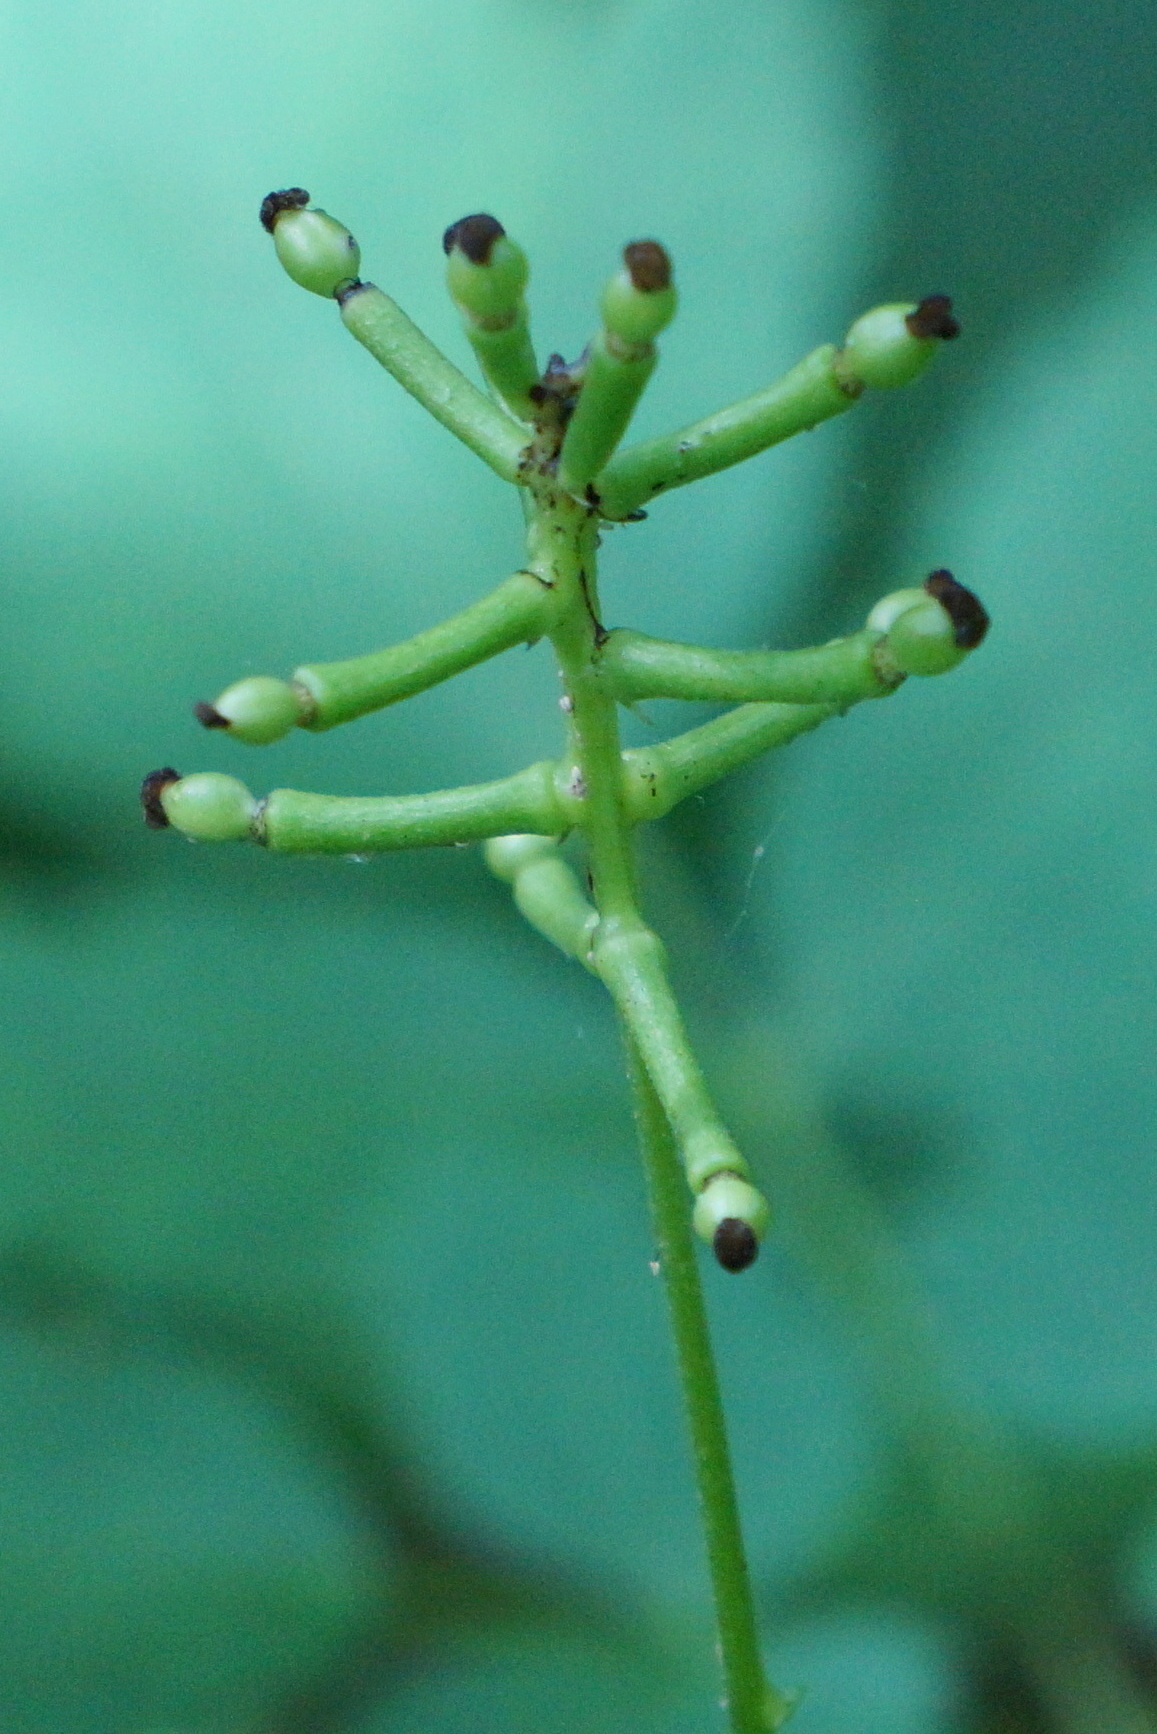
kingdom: Plantae
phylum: Tracheophyta
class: Magnoliopsida
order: Ranunculales
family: Ranunculaceae
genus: Actaea
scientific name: Actaea pachypoda
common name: Doll's-eyes
